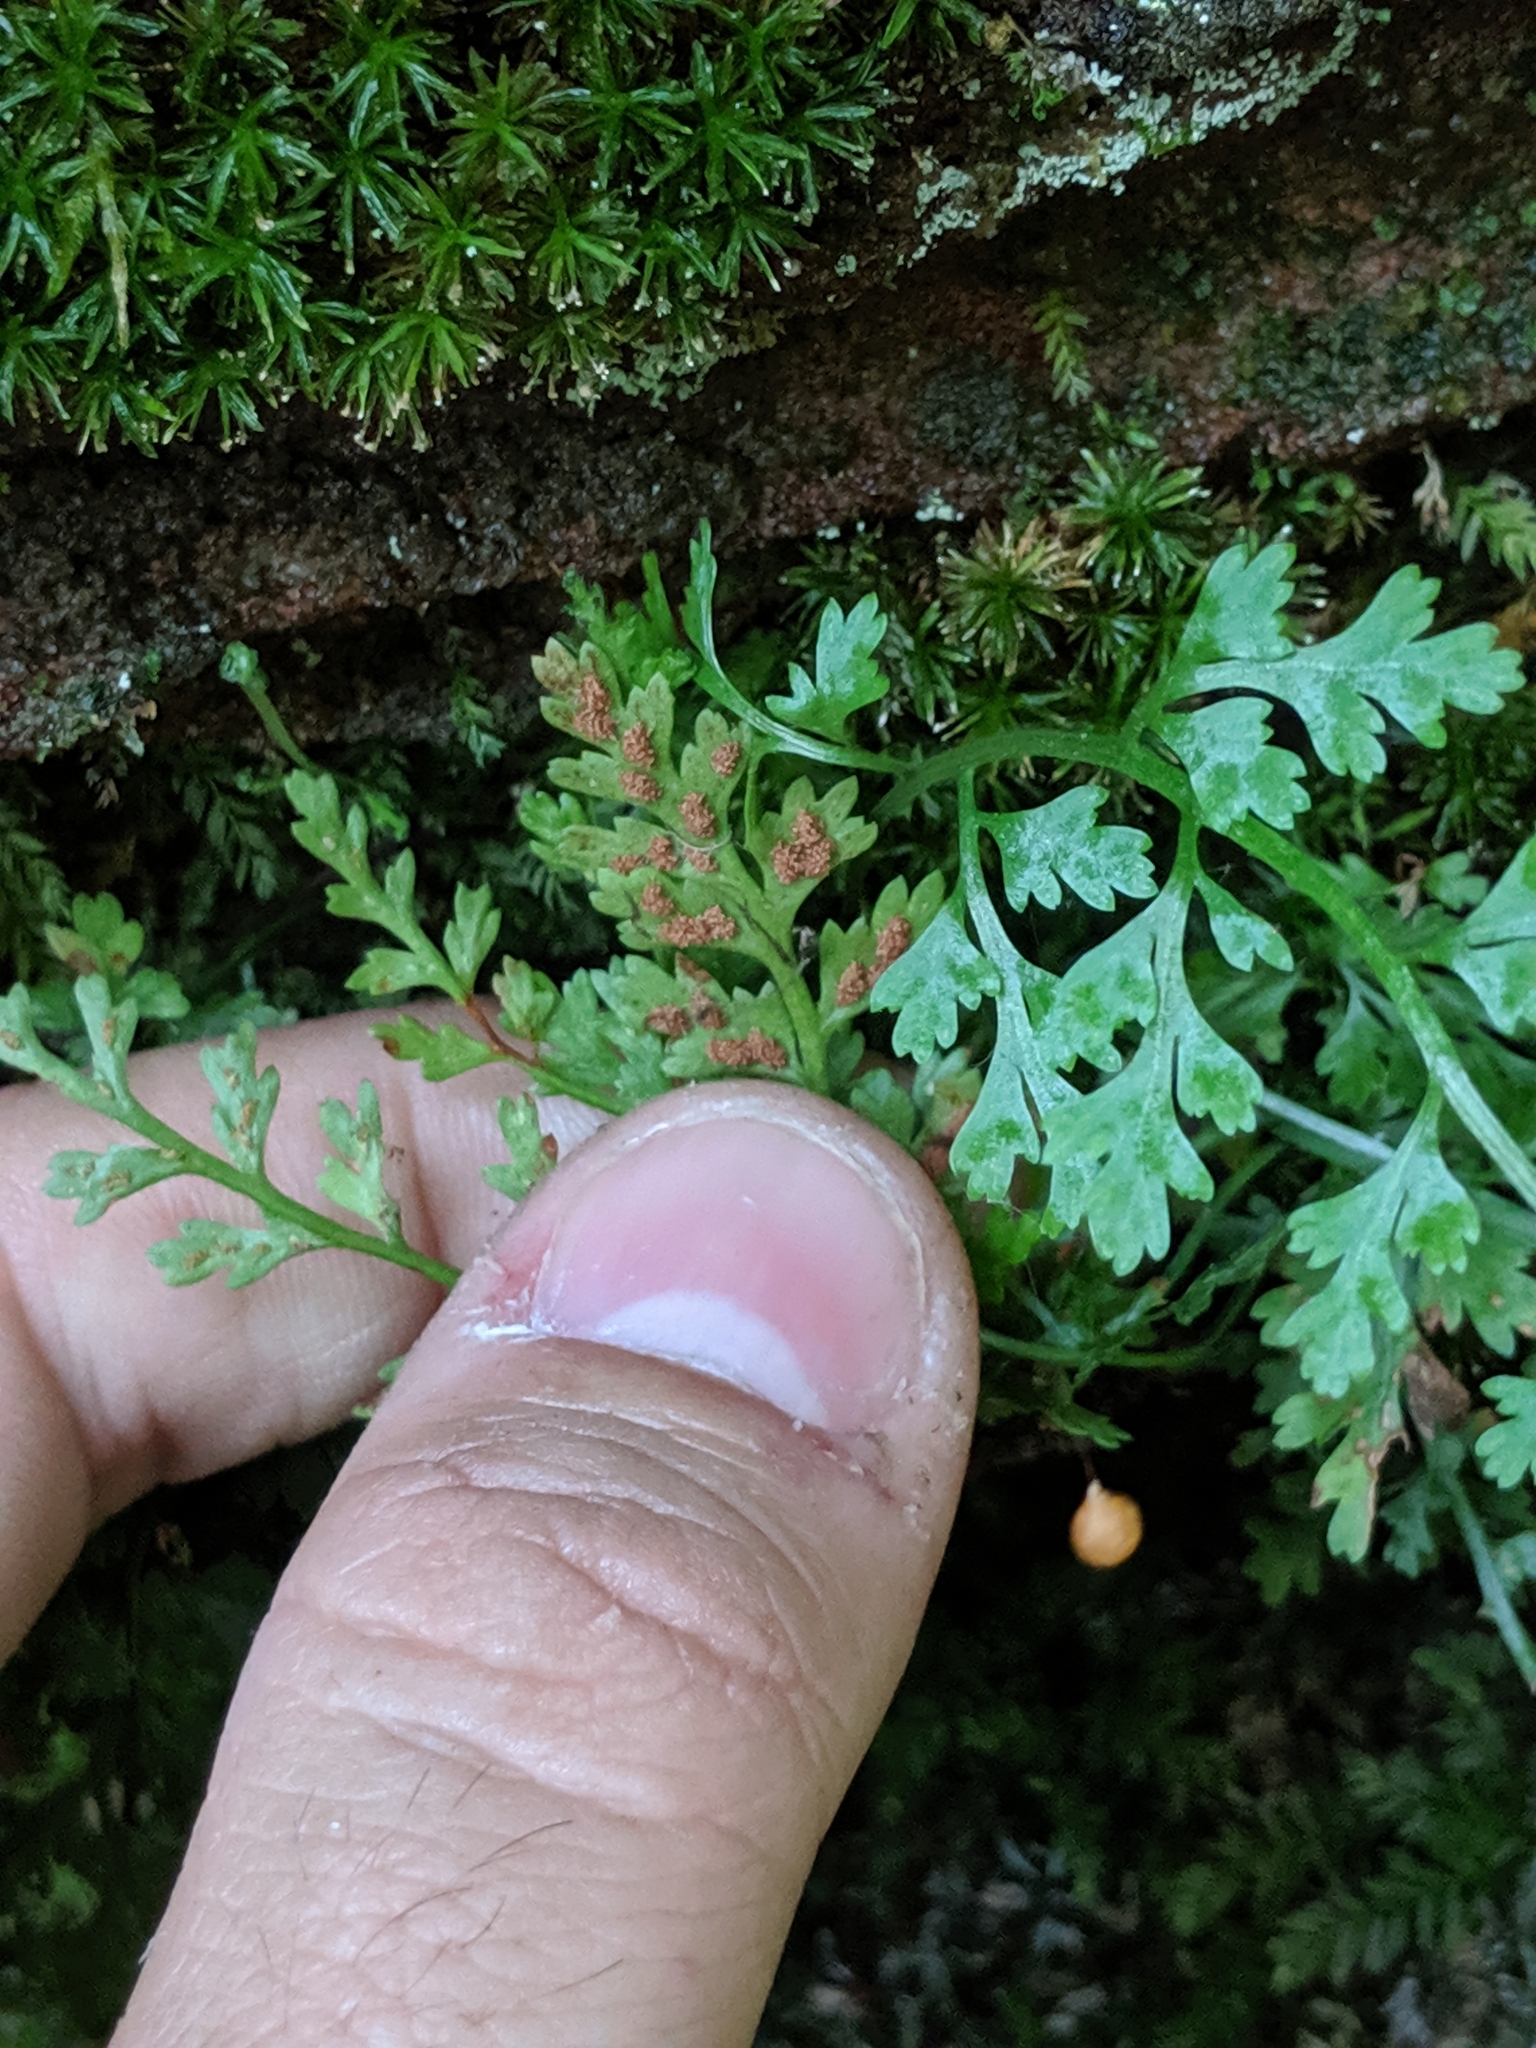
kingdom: Plantae
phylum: Tracheophyta
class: Polypodiopsida
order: Polypodiales
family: Aspleniaceae
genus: Asplenium
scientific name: Asplenium montanum
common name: Mountain spleenwort
